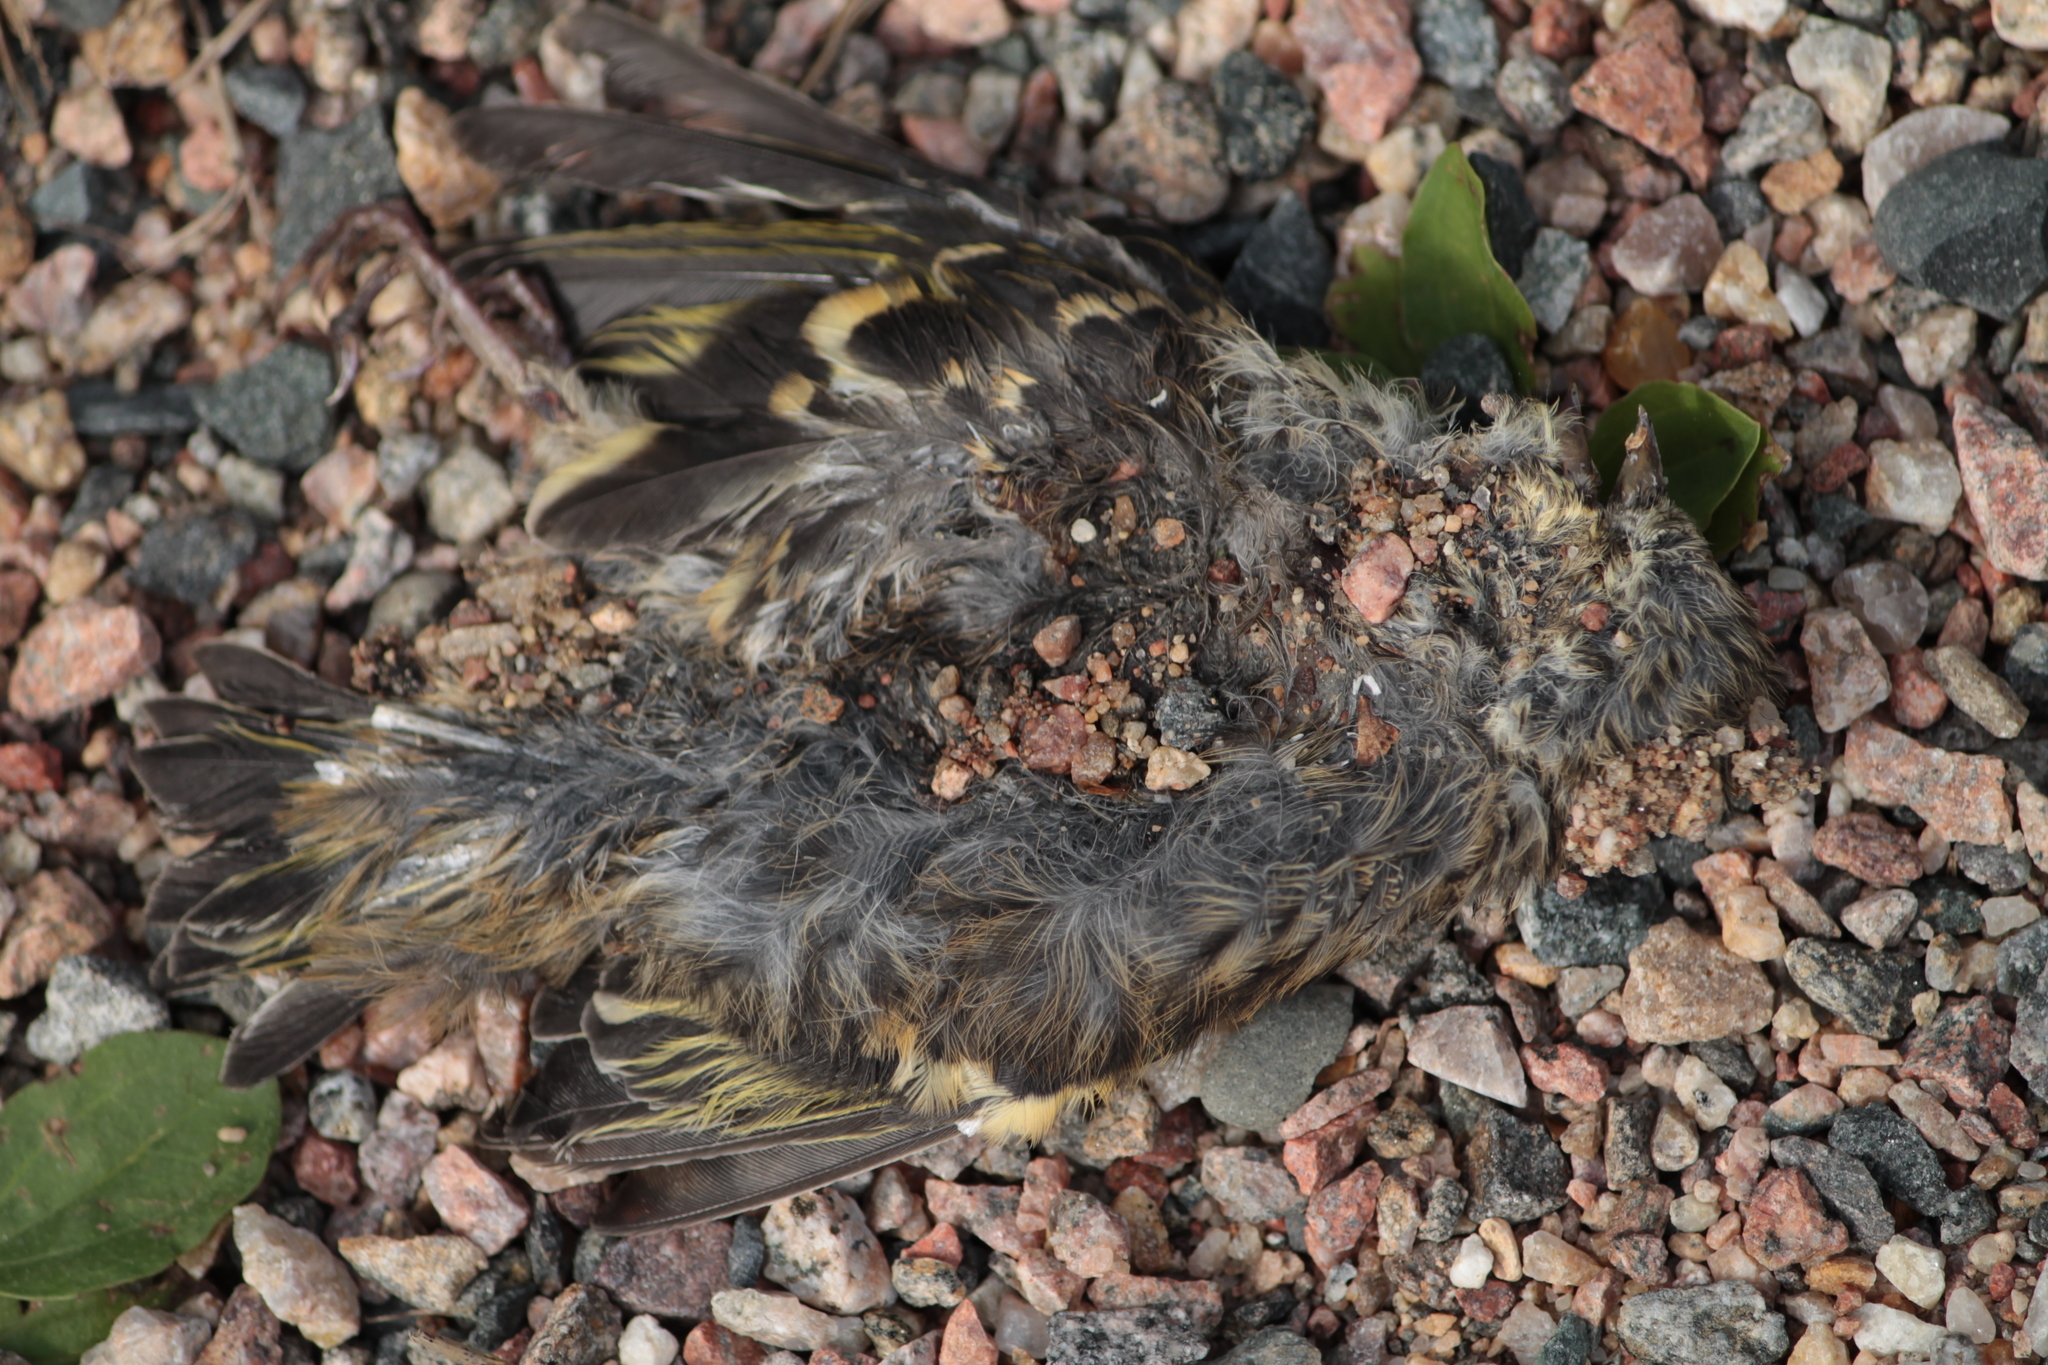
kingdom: Animalia
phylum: Chordata
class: Aves
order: Passeriformes
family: Fringillidae
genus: Spinus
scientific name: Spinus spinus
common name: Eurasian siskin
